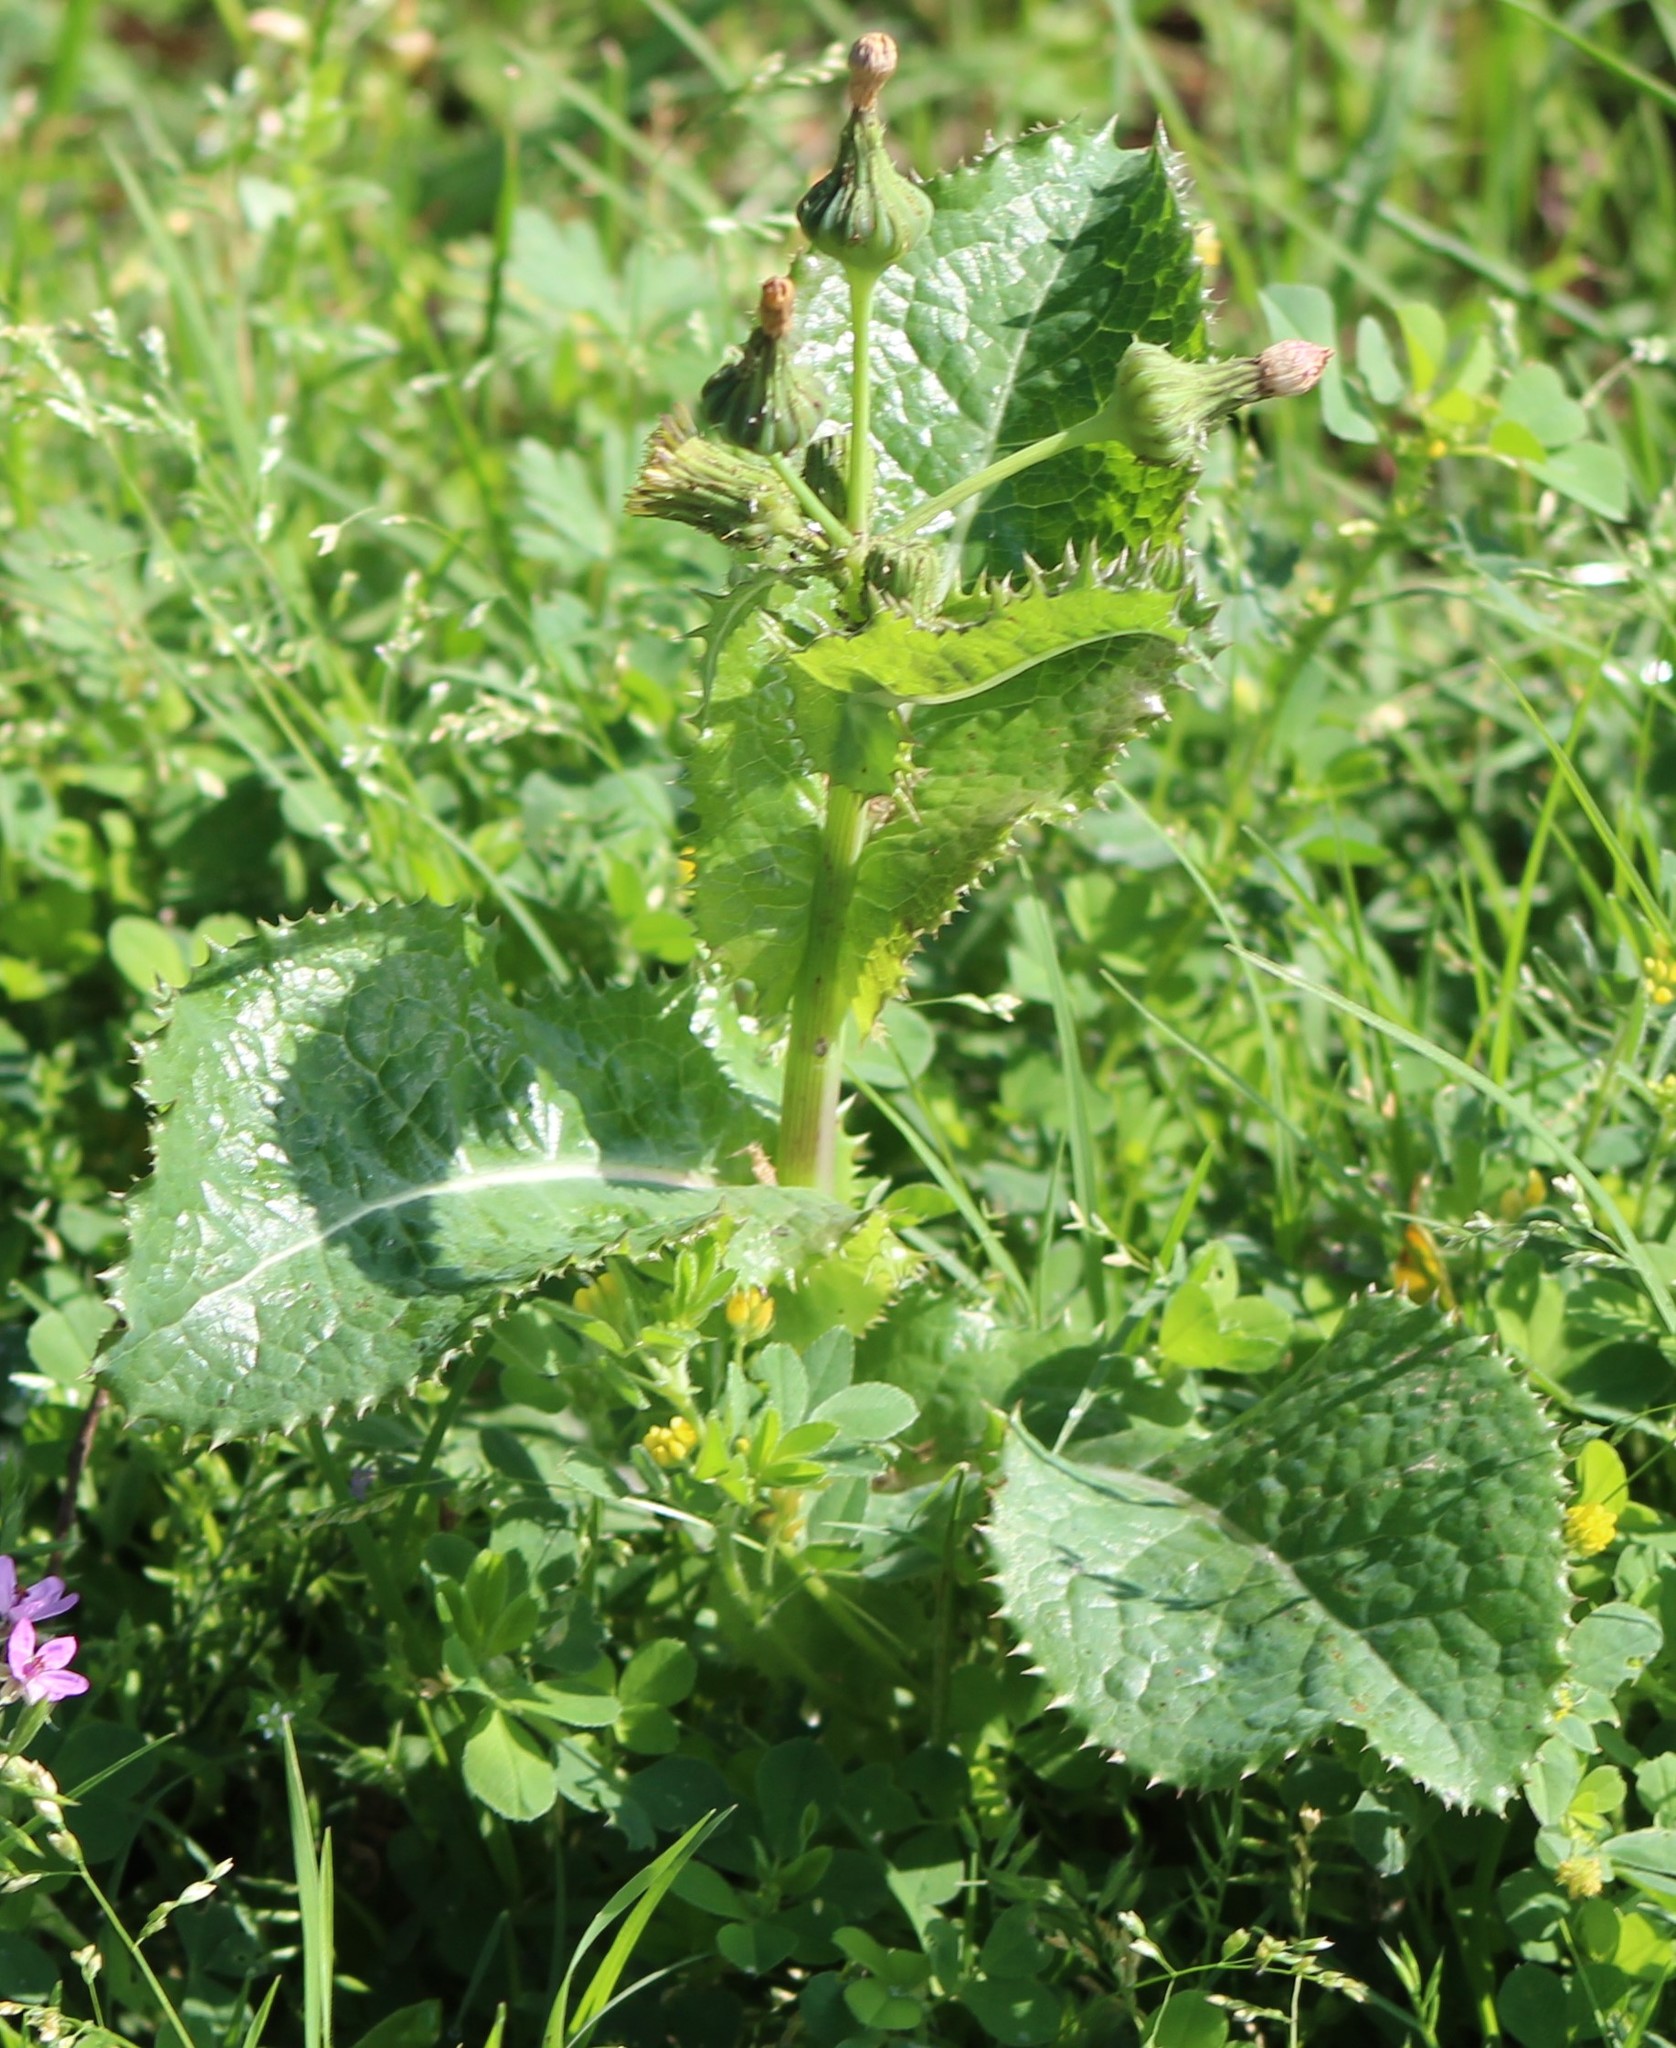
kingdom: Plantae
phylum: Tracheophyta
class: Magnoliopsida
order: Asterales
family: Asteraceae
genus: Sonchus
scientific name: Sonchus asper
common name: Prickly sow-thistle
